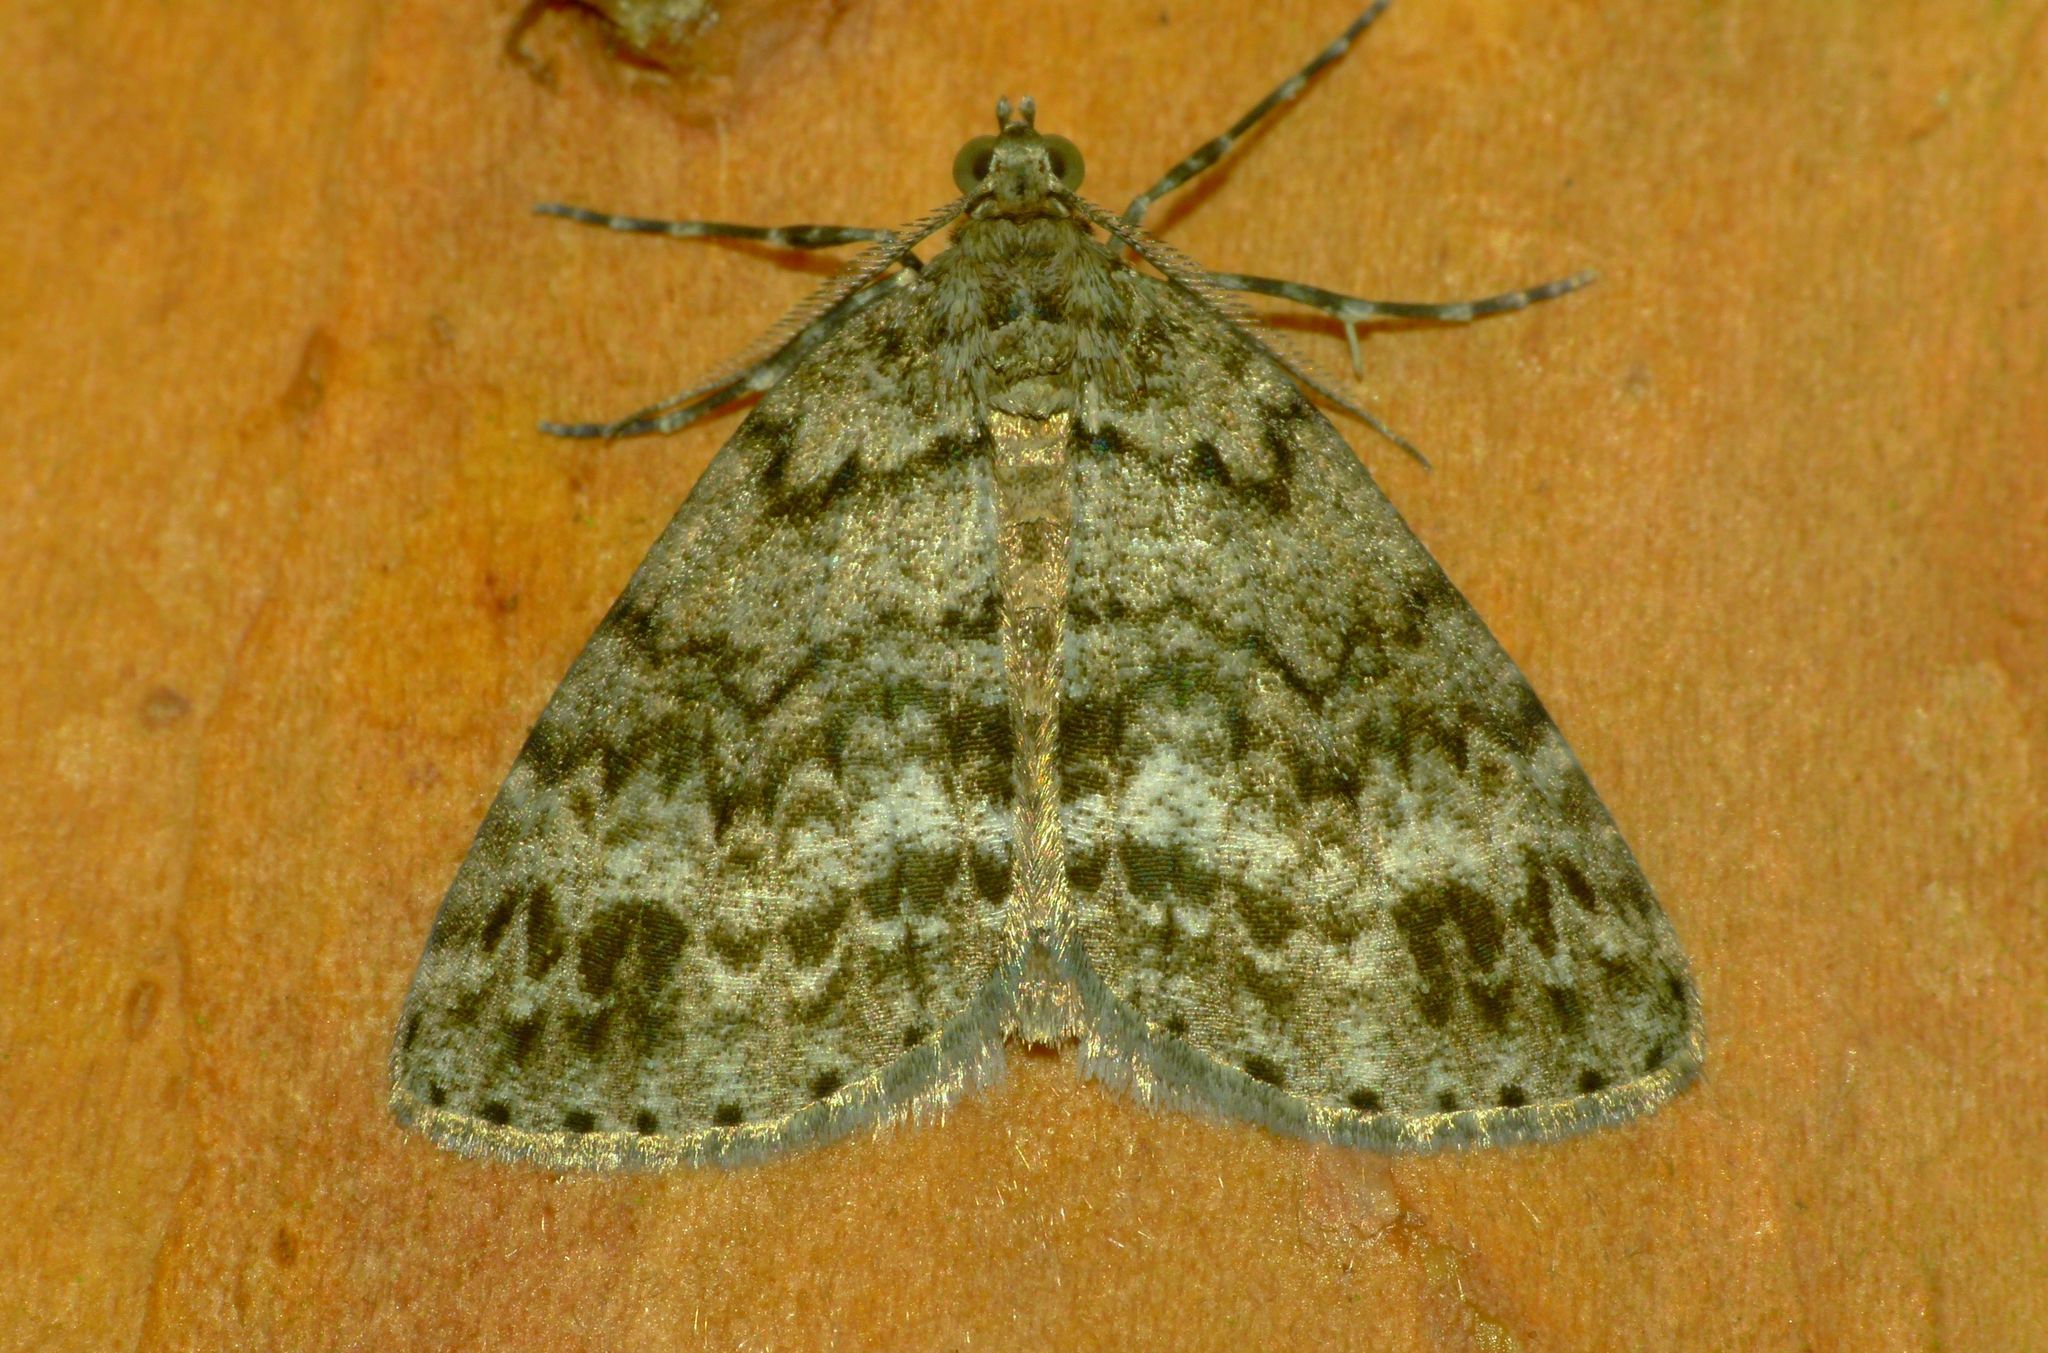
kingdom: Animalia
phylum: Arthropoda
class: Insecta
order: Lepidoptera
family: Geometridae
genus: Pseudocoremia
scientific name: Pseudocoremia indistincta
